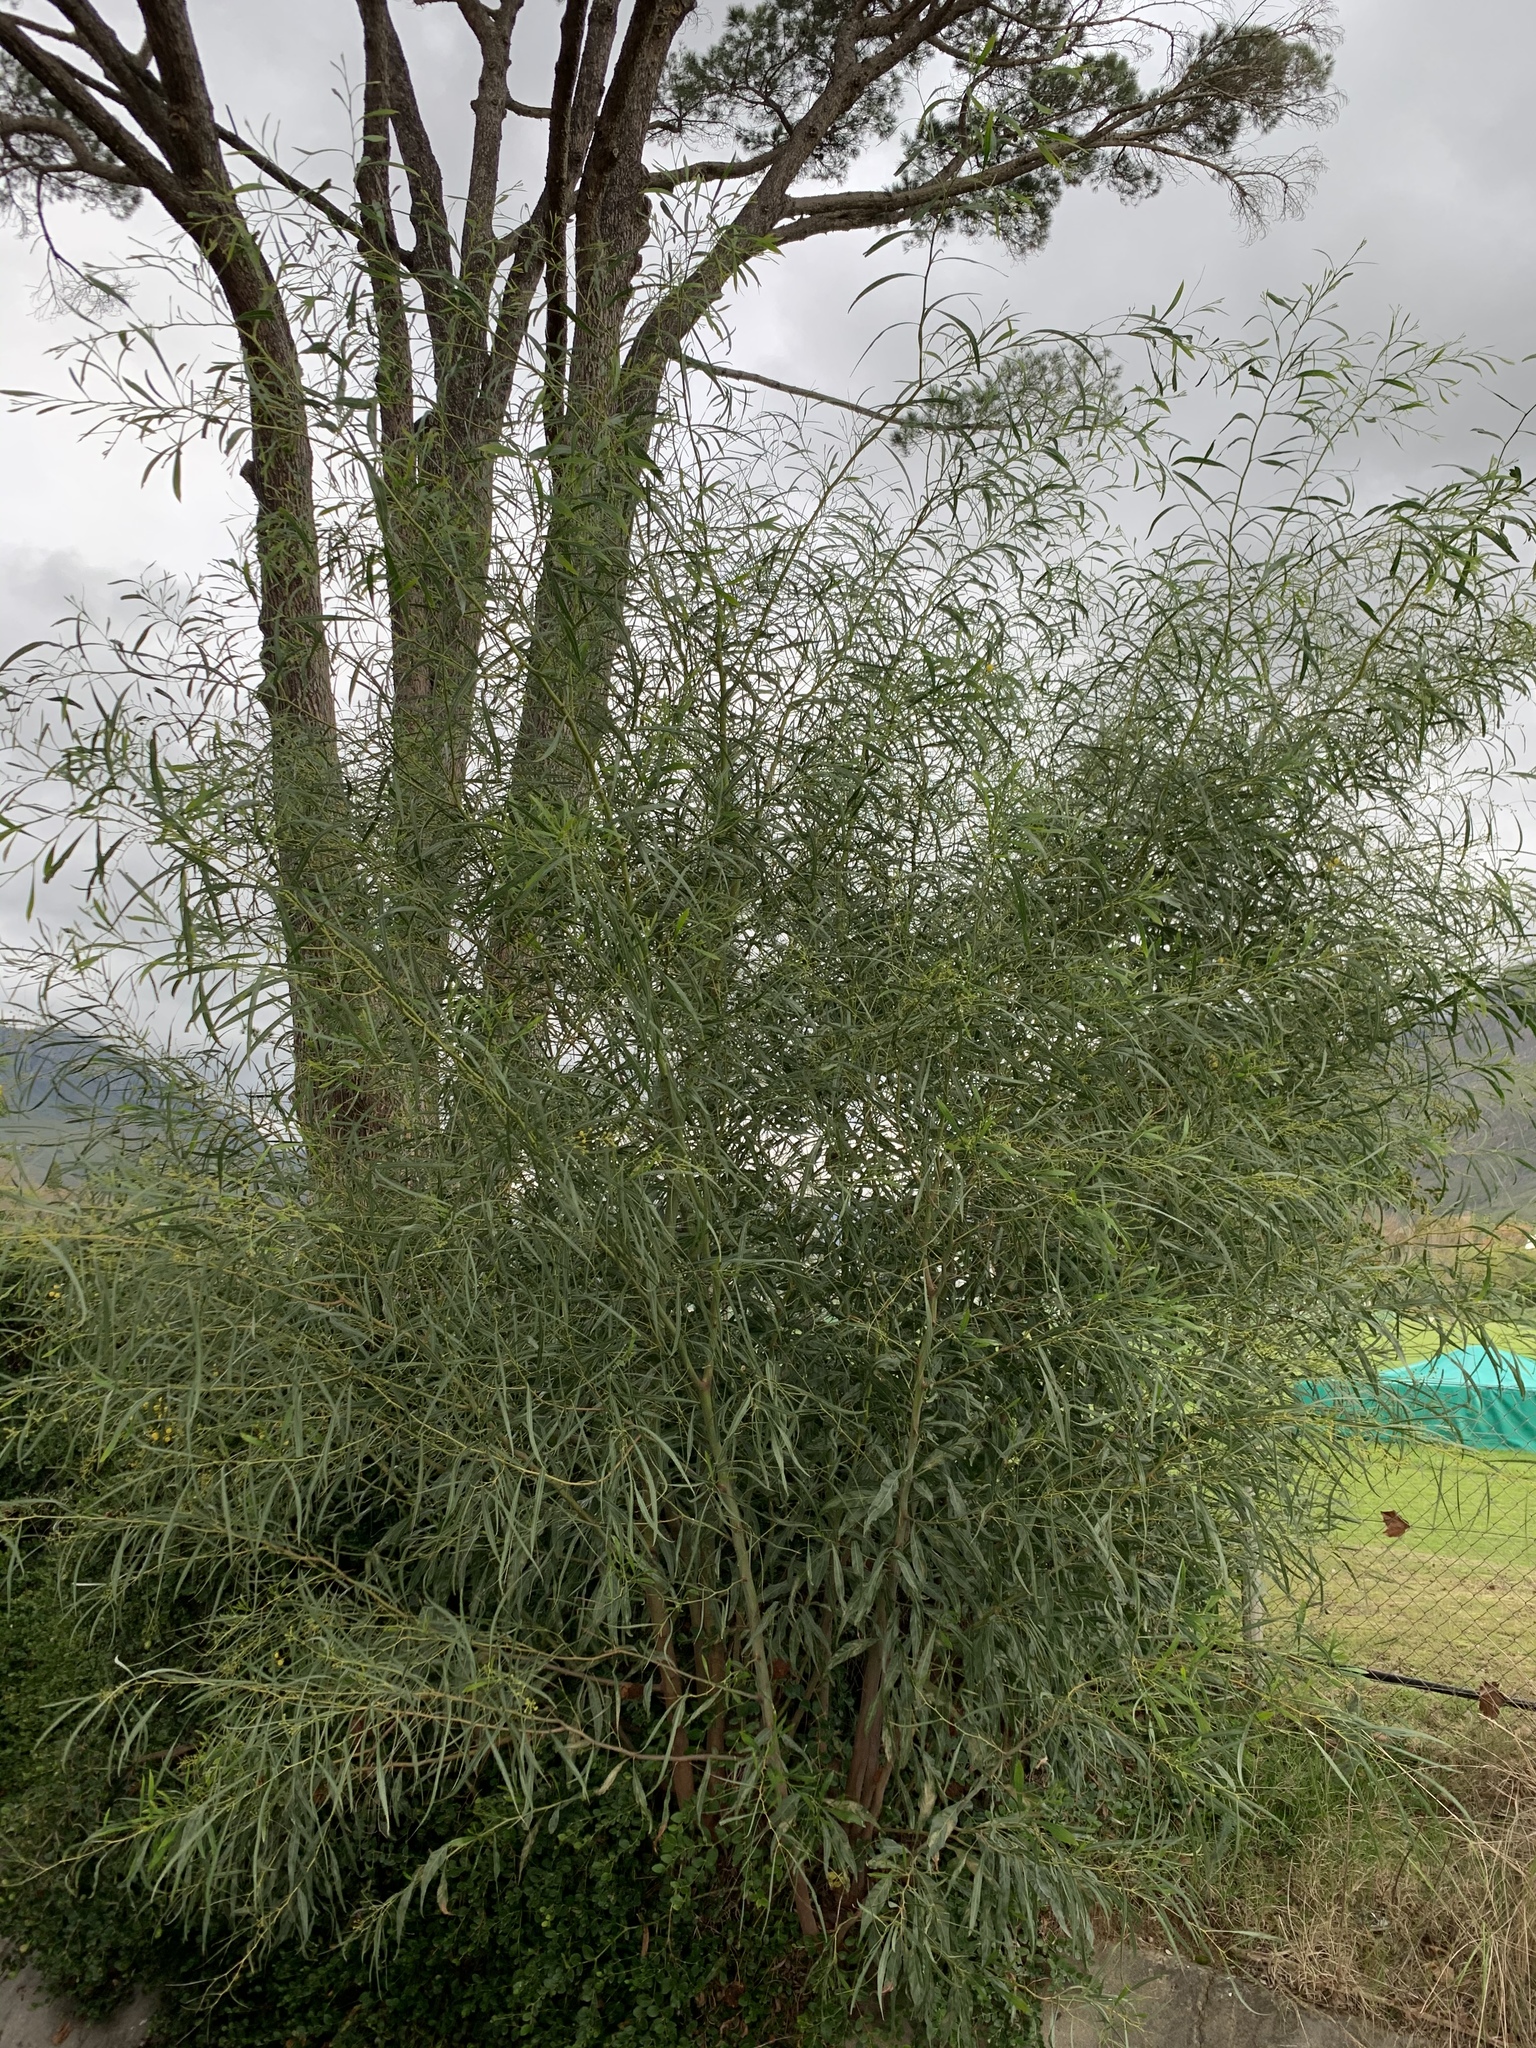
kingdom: Plantae
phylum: Tracheophyta
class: Magnoliopsida
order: Fabales
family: Fabaceae
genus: Acacia
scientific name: Acacia saligna
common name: Orange wattle
